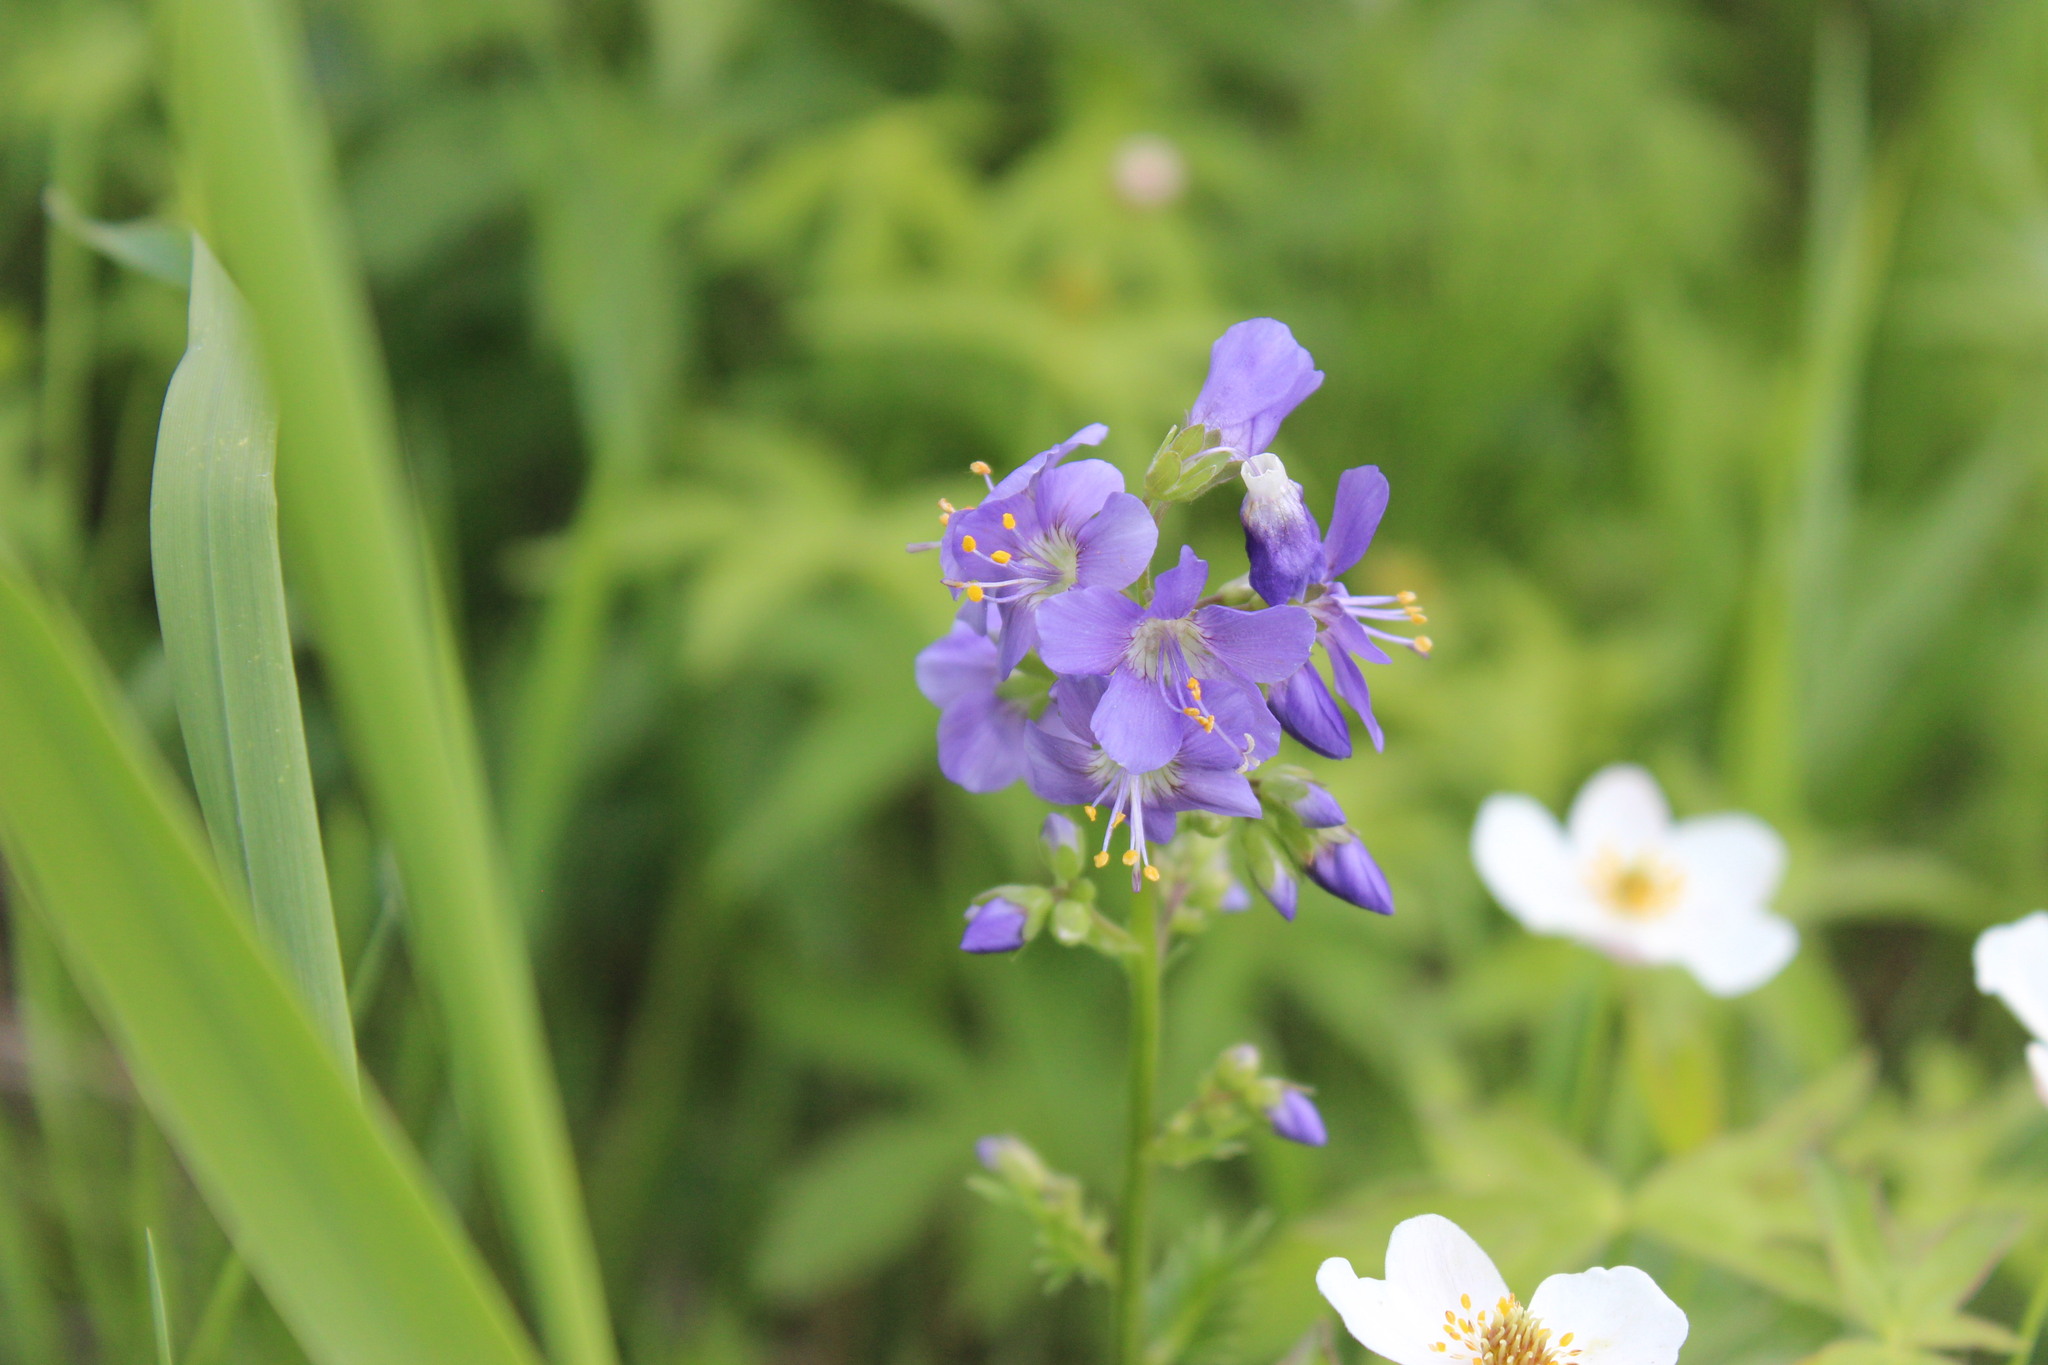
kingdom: Plantae
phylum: Tracheophyta
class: Magnoliopsida
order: Ericales
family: Polemoniaceae
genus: Polemonium
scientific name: Polemonium caeruleum
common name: Jacob's-ladder
